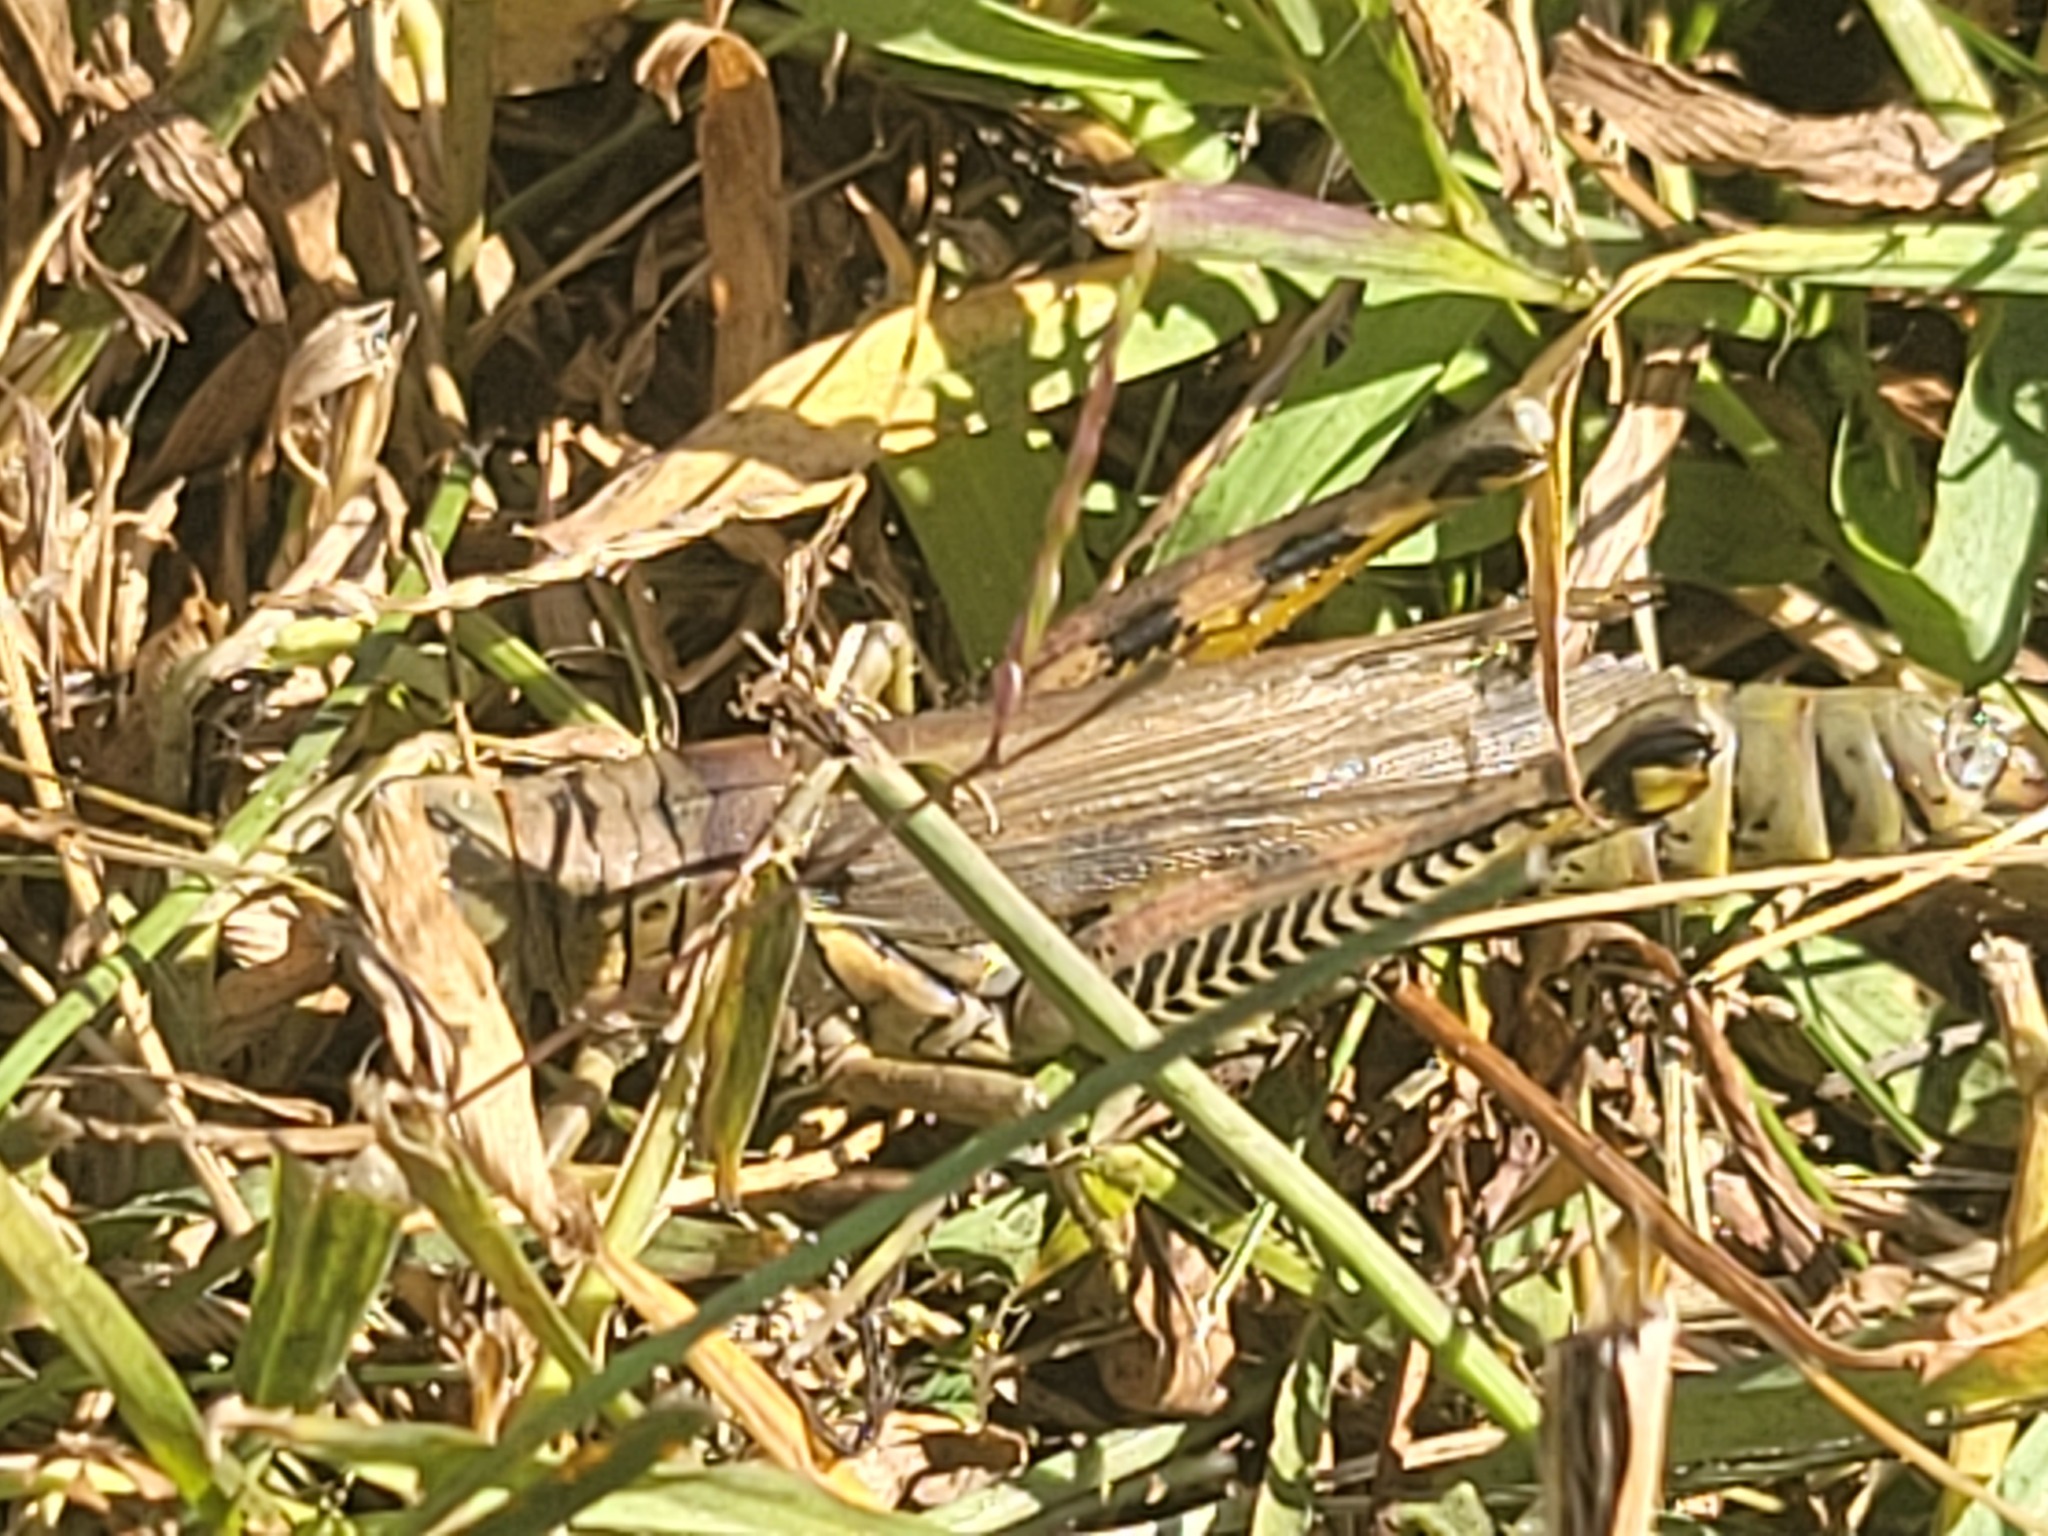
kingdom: Animalia
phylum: Arthropoda
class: Insecta
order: Orthoptera
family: Acrididae
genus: Melanoplus
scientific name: Melanoplus differentialis
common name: Differential grasshopper
